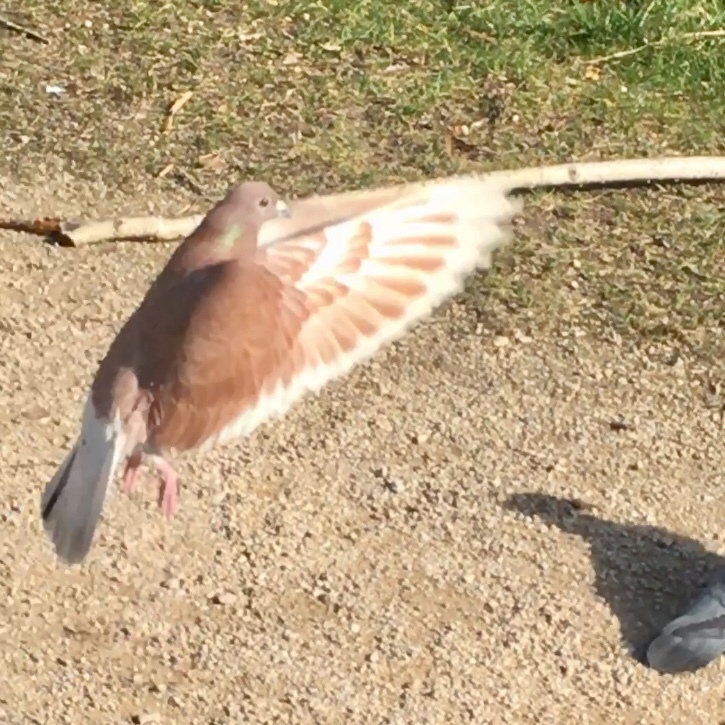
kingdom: Animalia
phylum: Chordata
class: Aves
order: Columbiformes
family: Columbidae
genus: Columba
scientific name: Columba livia
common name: Rock pigeon
